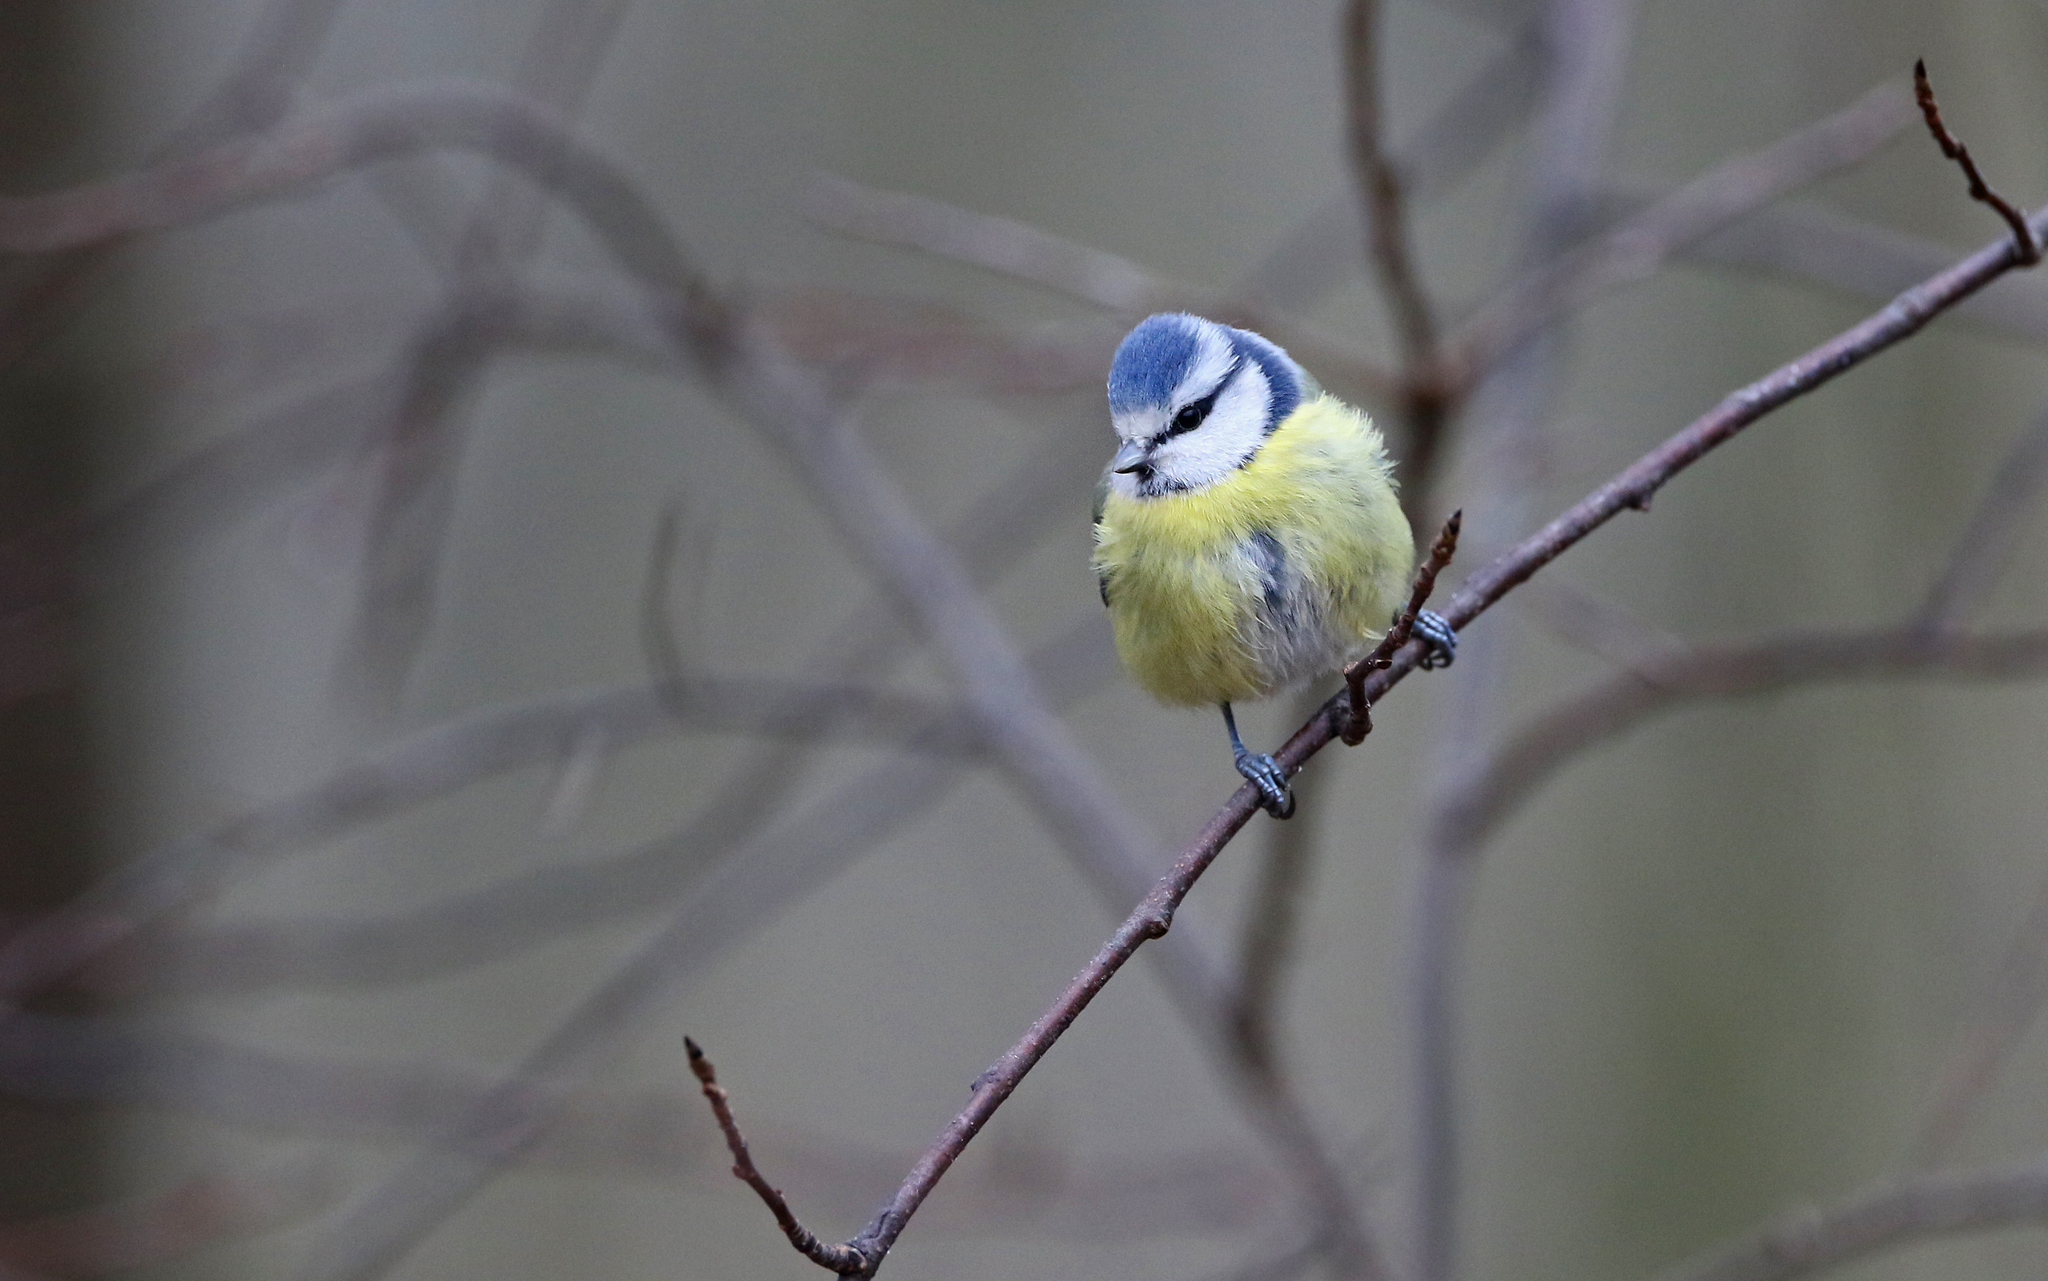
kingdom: Animalia
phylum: Chordata
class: Aves
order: Passeriformes
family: Paridae
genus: Cyanistes
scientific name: Cyanistes caeruleus
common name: Eurasian blue tit
